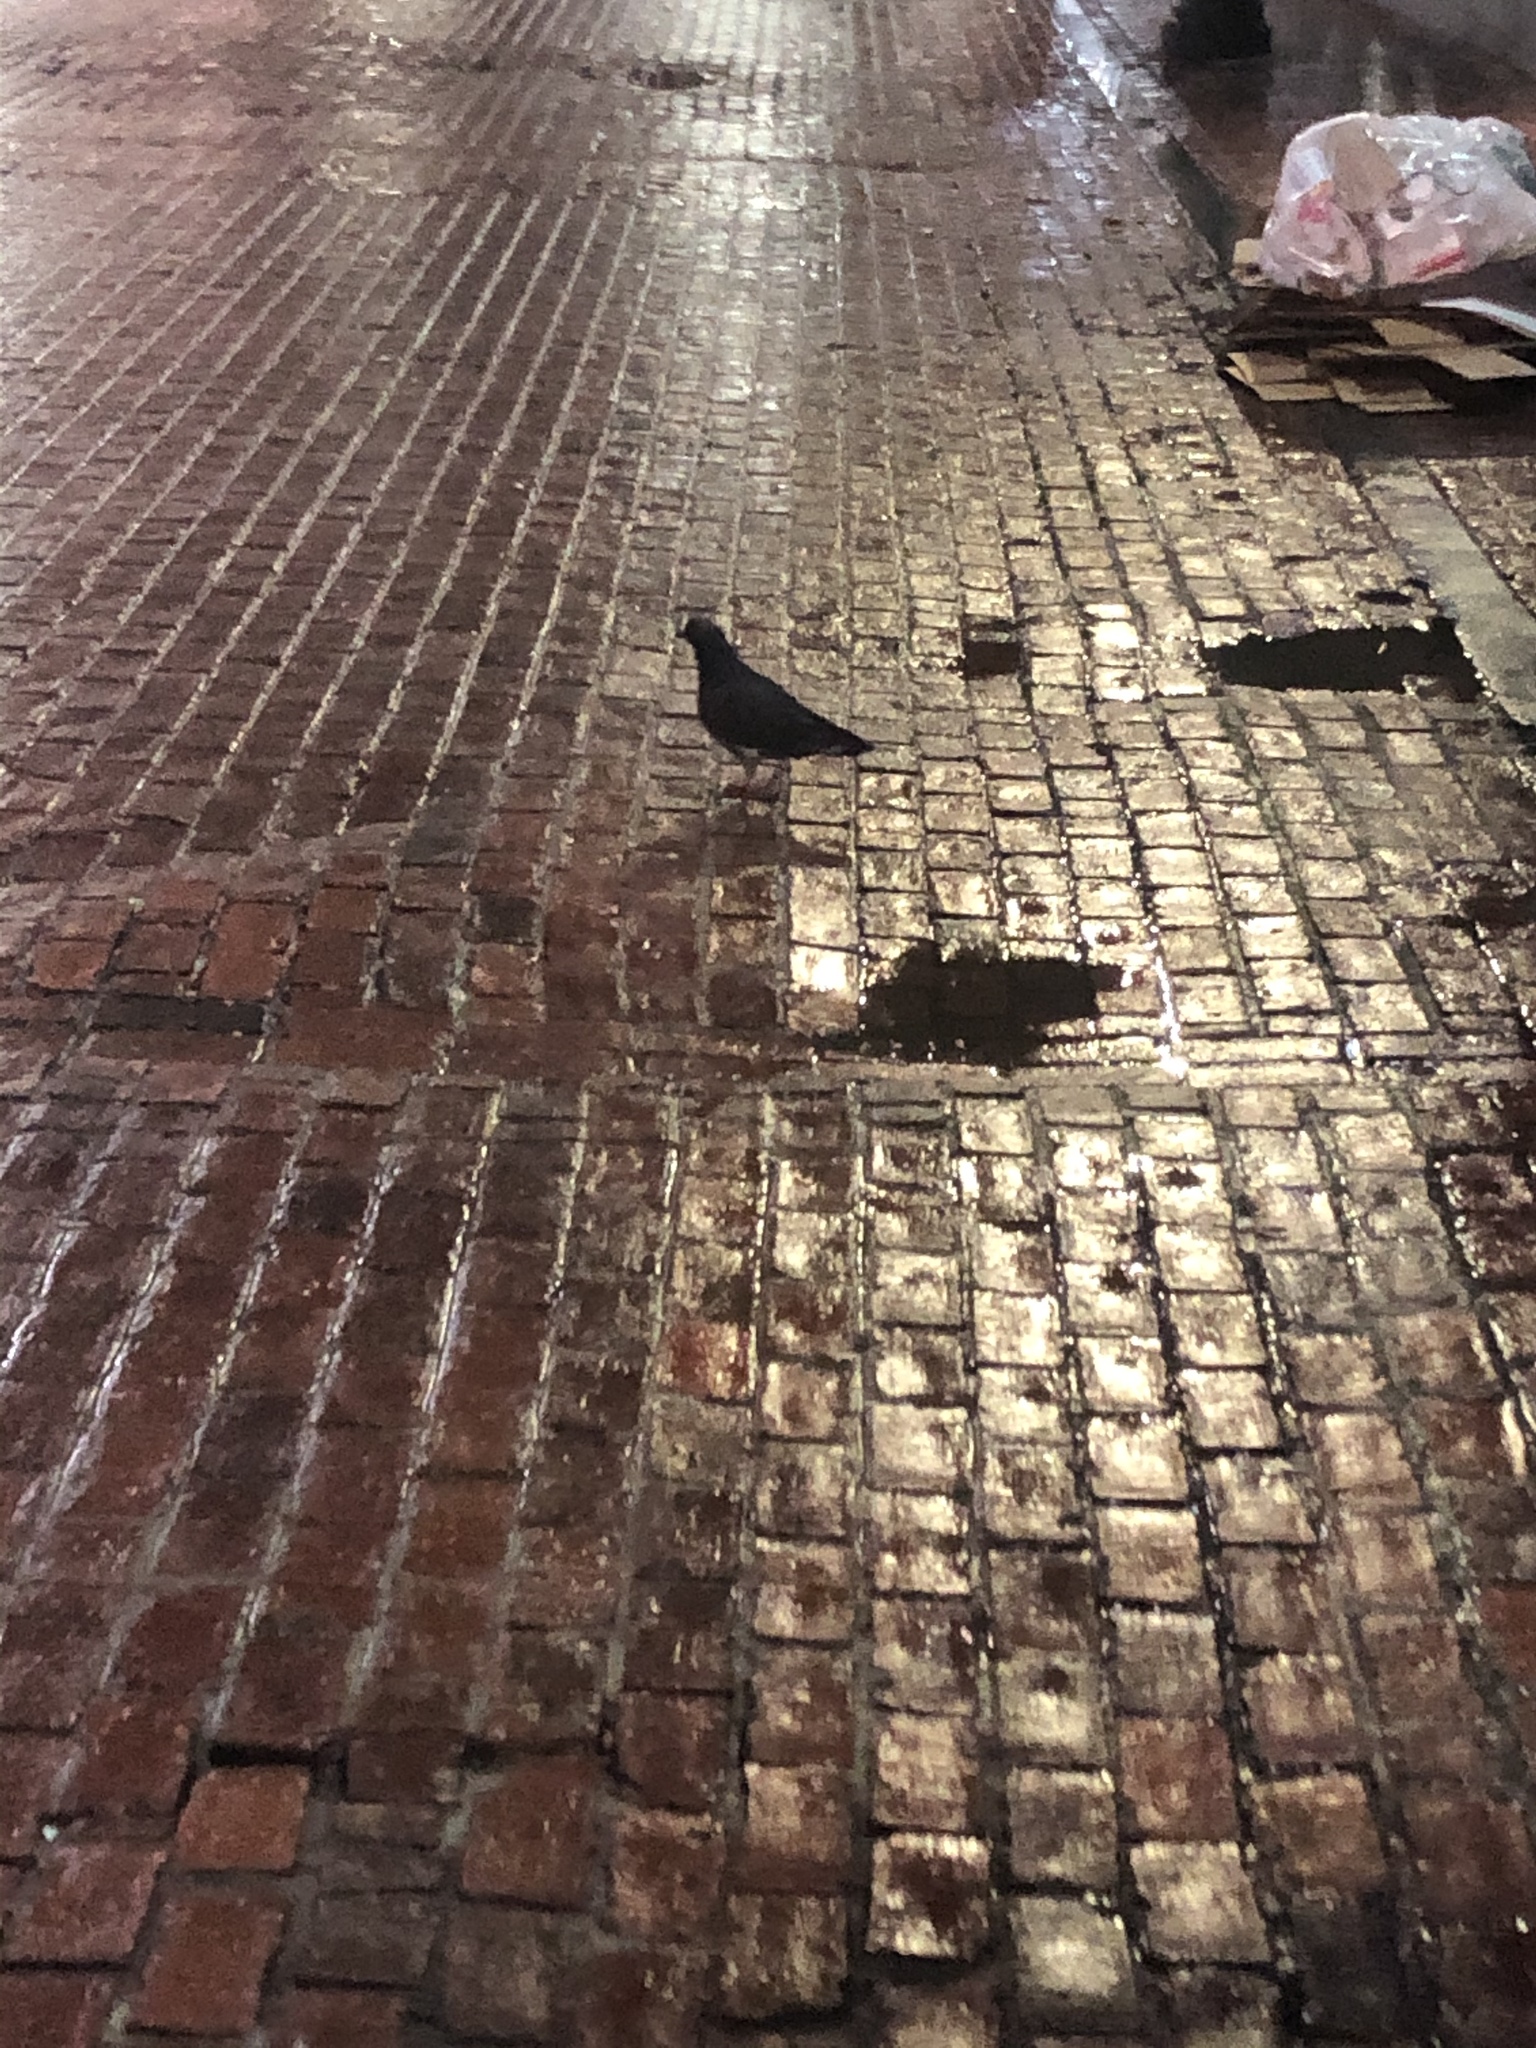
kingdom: Animalia
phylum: Chordata
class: Aves
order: Columbiformes
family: Columbidae
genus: Columba
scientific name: Columba livia
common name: Rock pigeon
